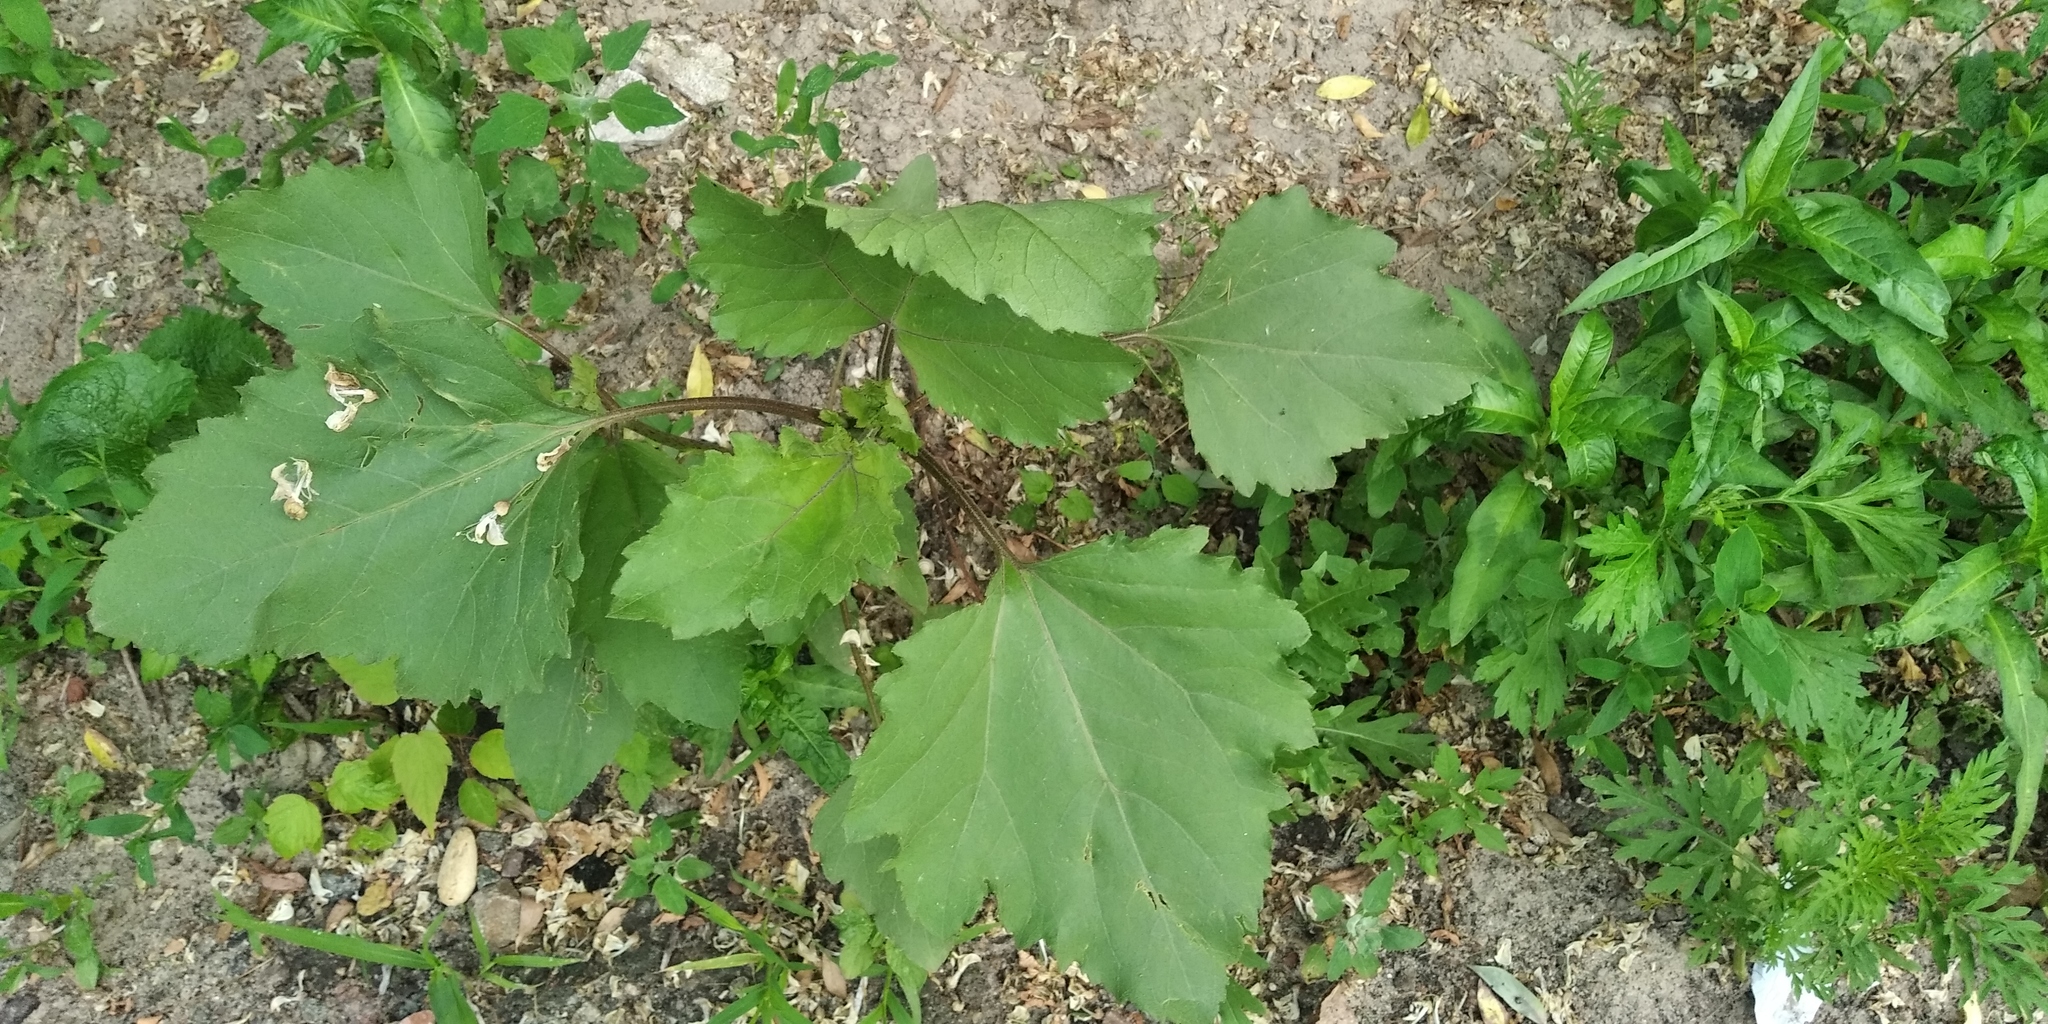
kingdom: Plantae
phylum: Tracheophyta
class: Magnoliopsida
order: Asterales
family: Asteraceae
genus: Cyclachaena
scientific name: Cyclachaena xanthiifolia
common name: Giant sumpweed
